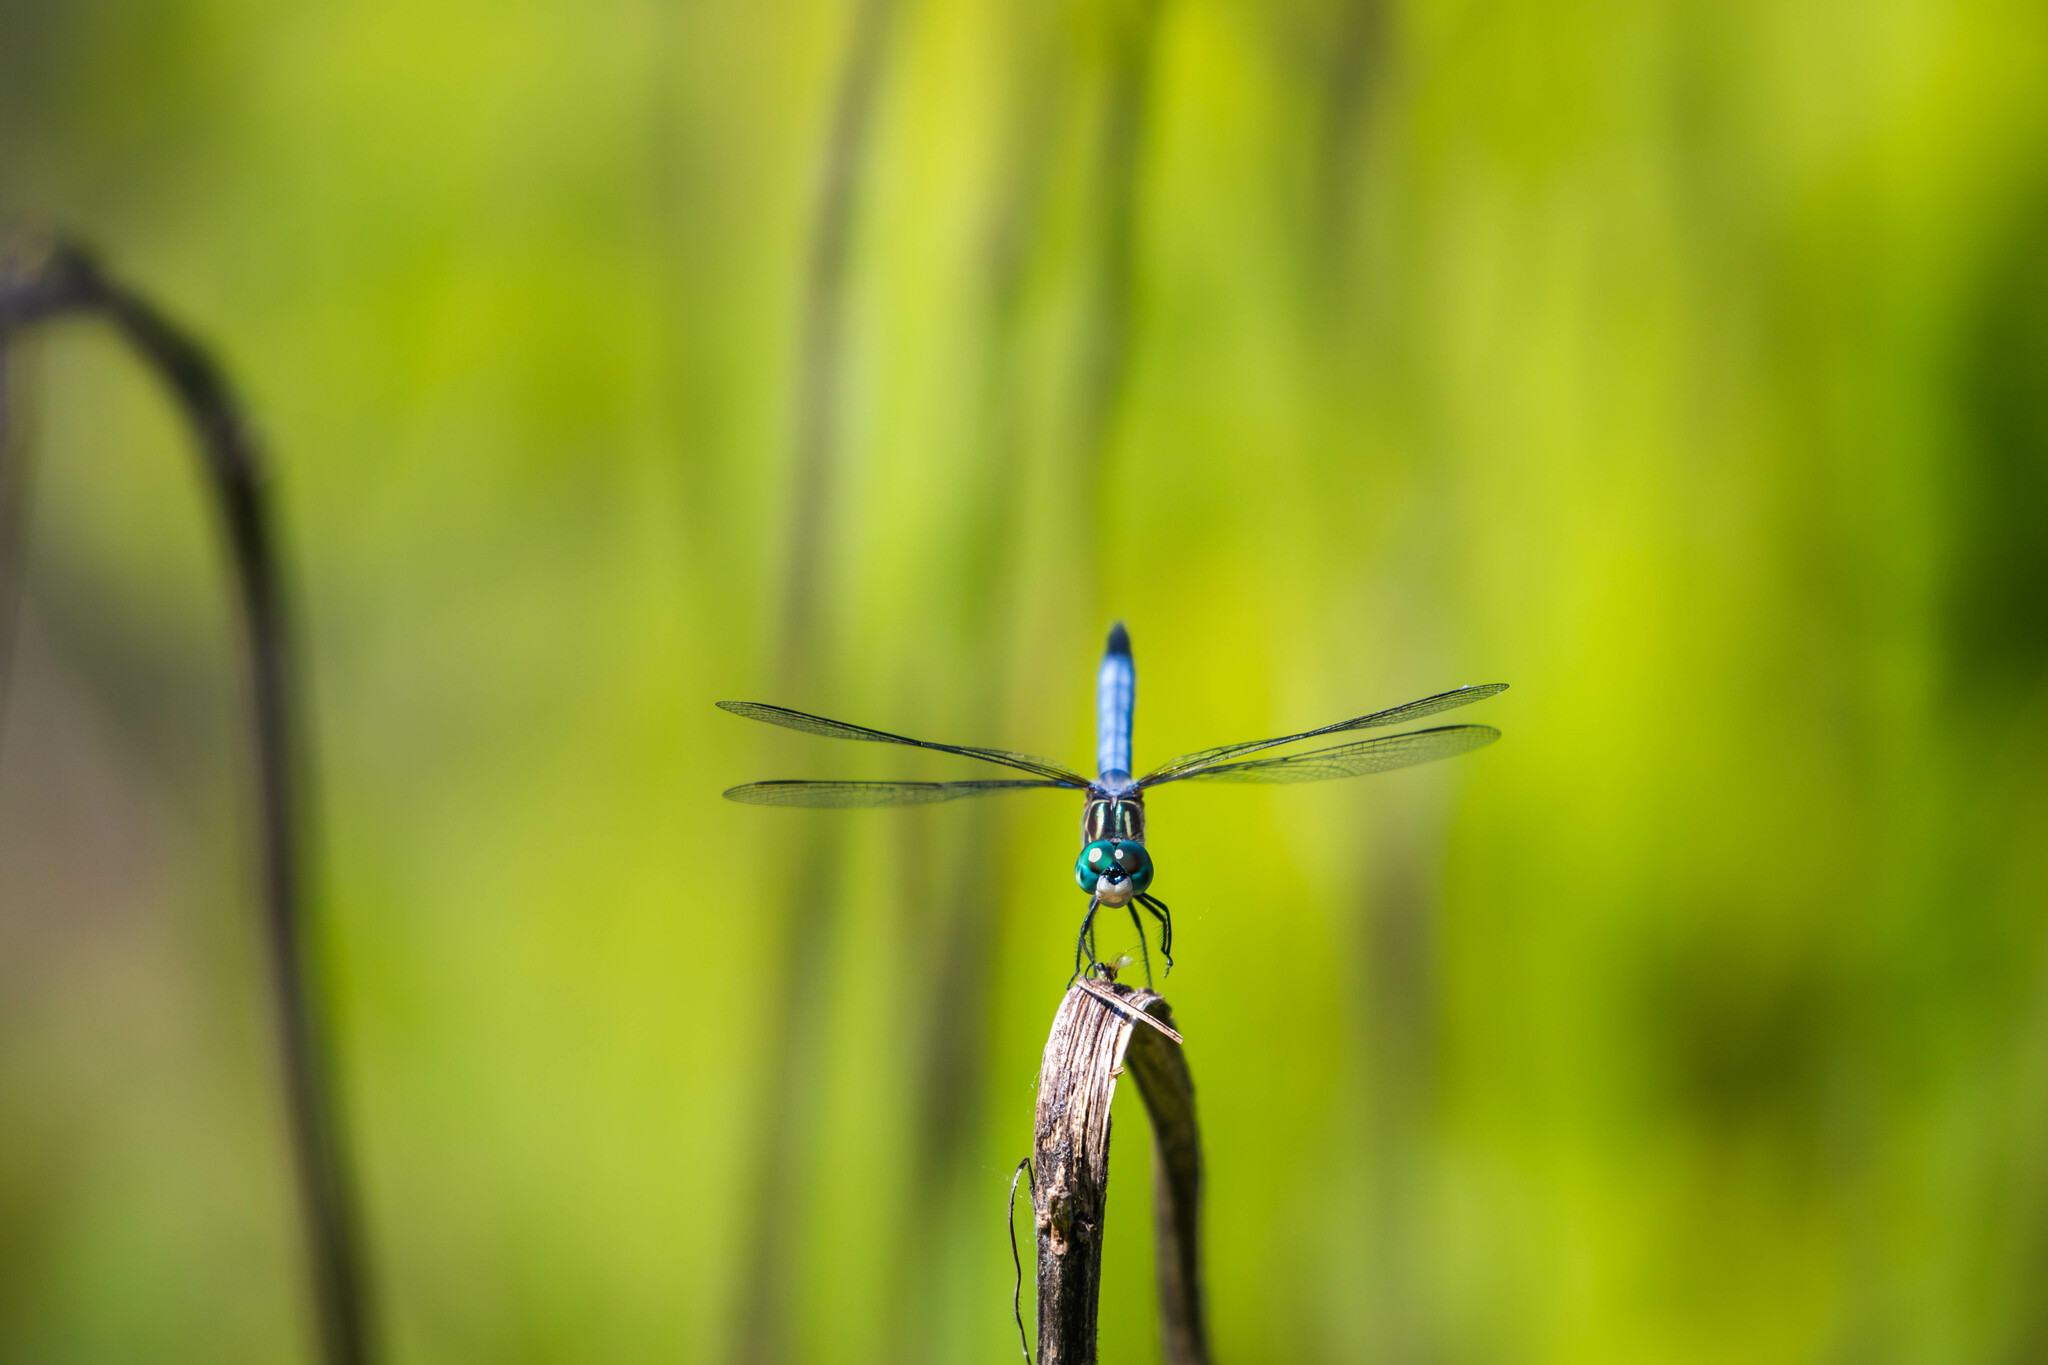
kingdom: Animalia
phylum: Arthropoda
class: Insecta
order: Odonata
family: Libellulidae
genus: Pachydiplax
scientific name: Pachydiplax longipennis
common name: Blue dasher
